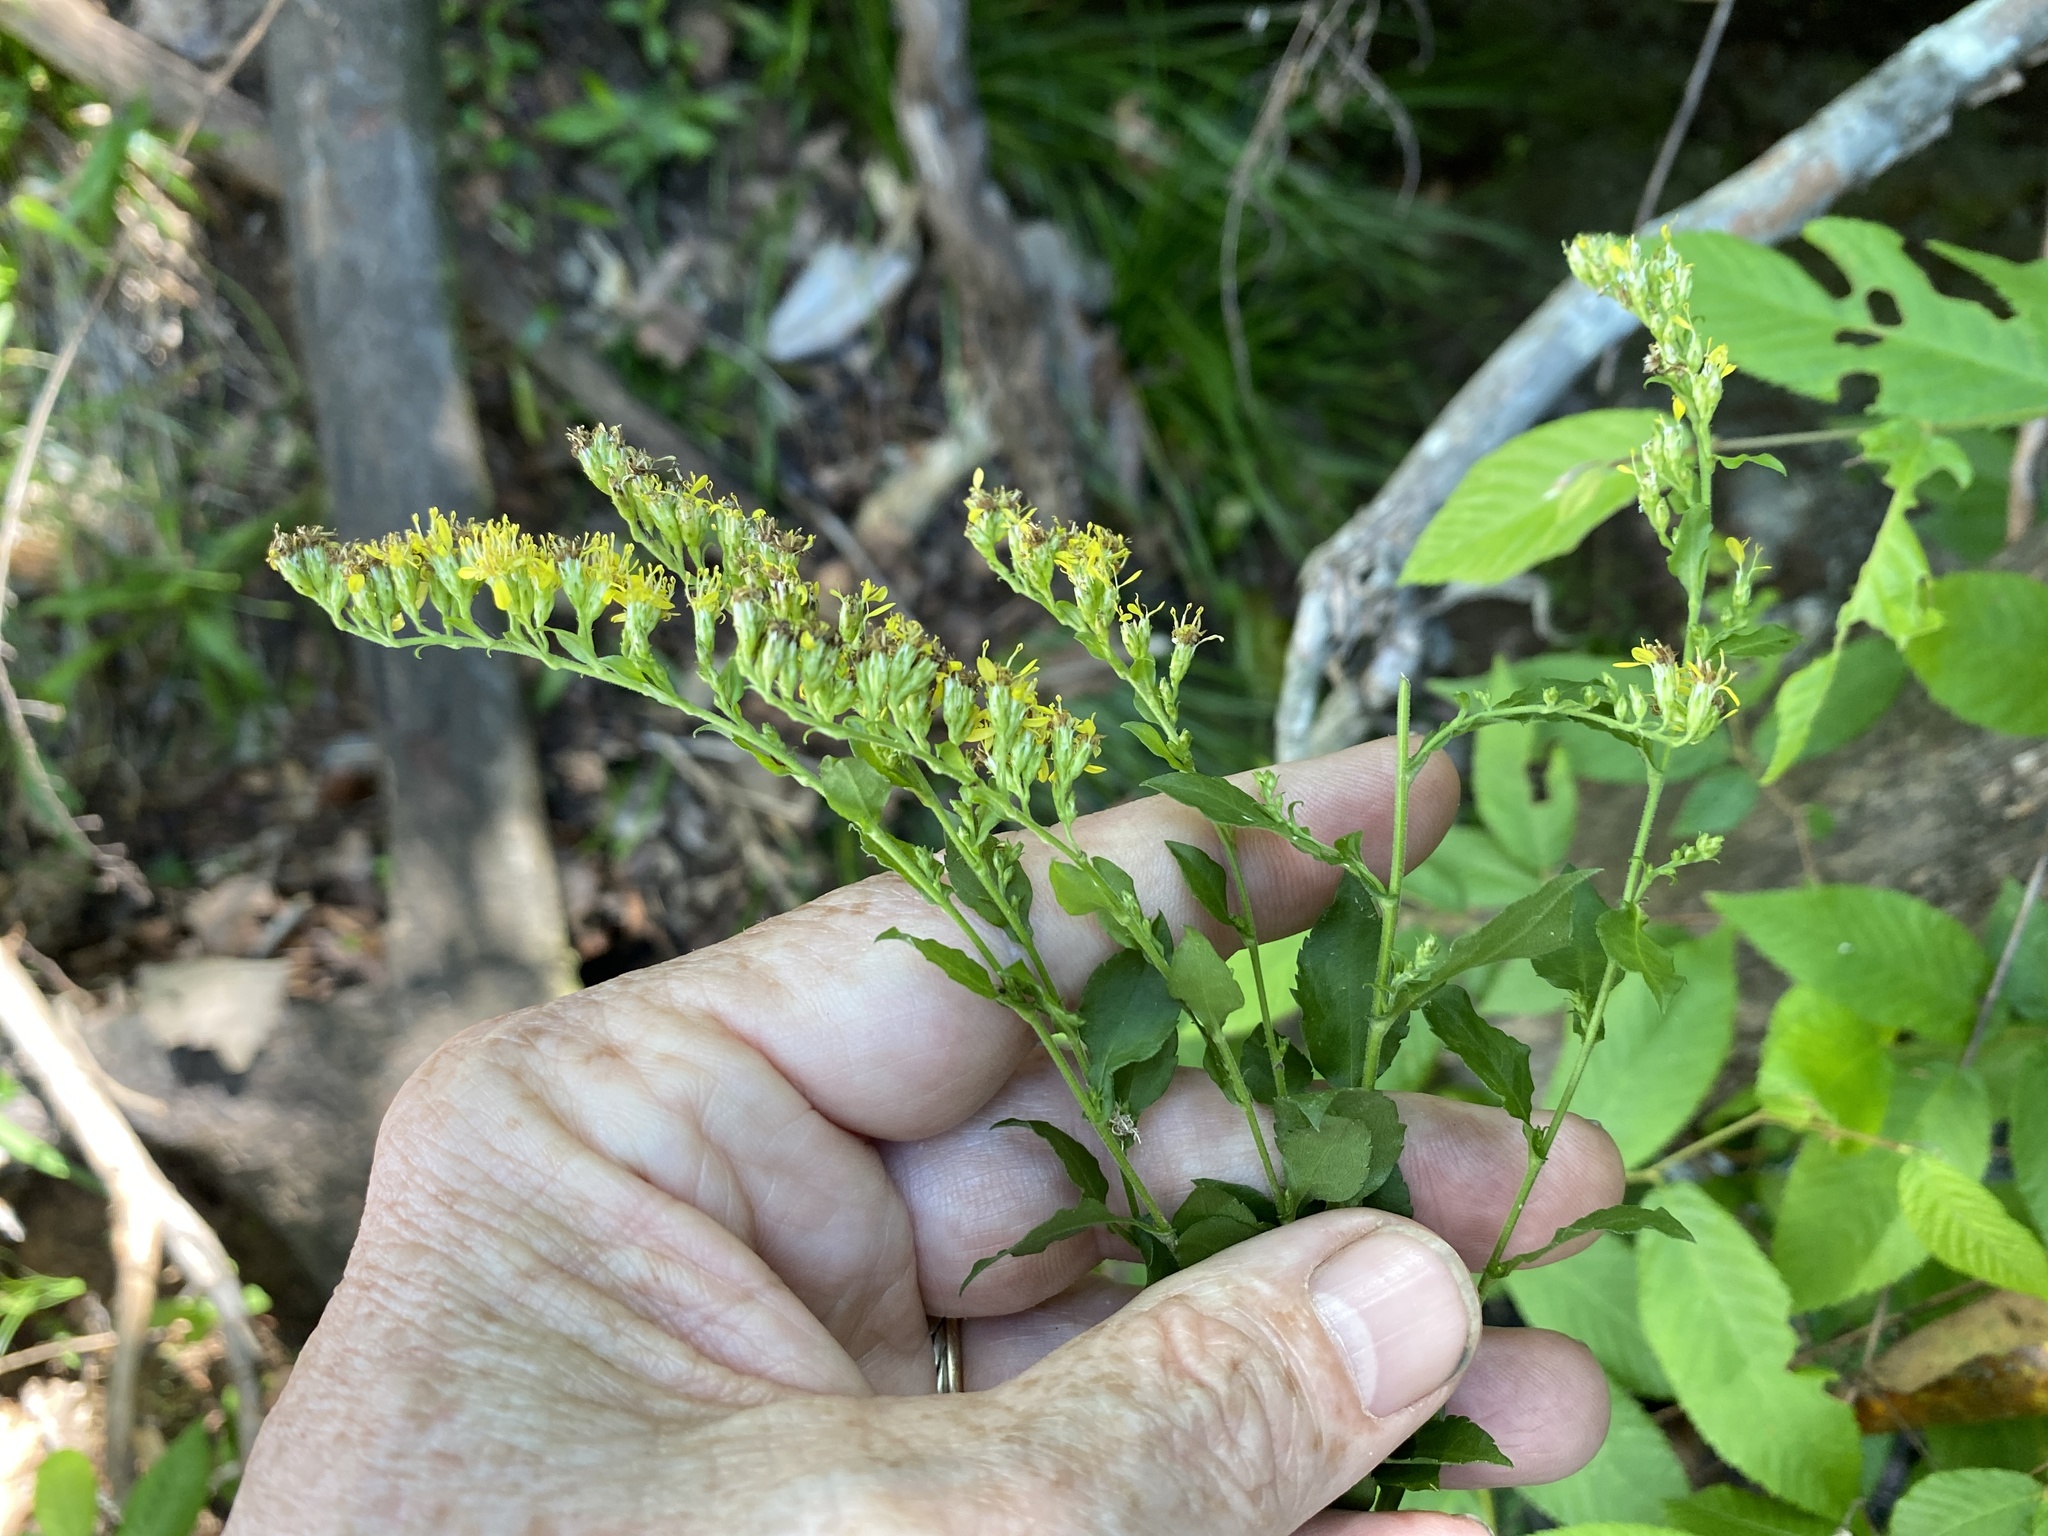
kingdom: Plantae
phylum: Tracheophyta
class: Magnoliopsida
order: Asterales
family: Asteraceae
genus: Solidago
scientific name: Solidago auriculata
